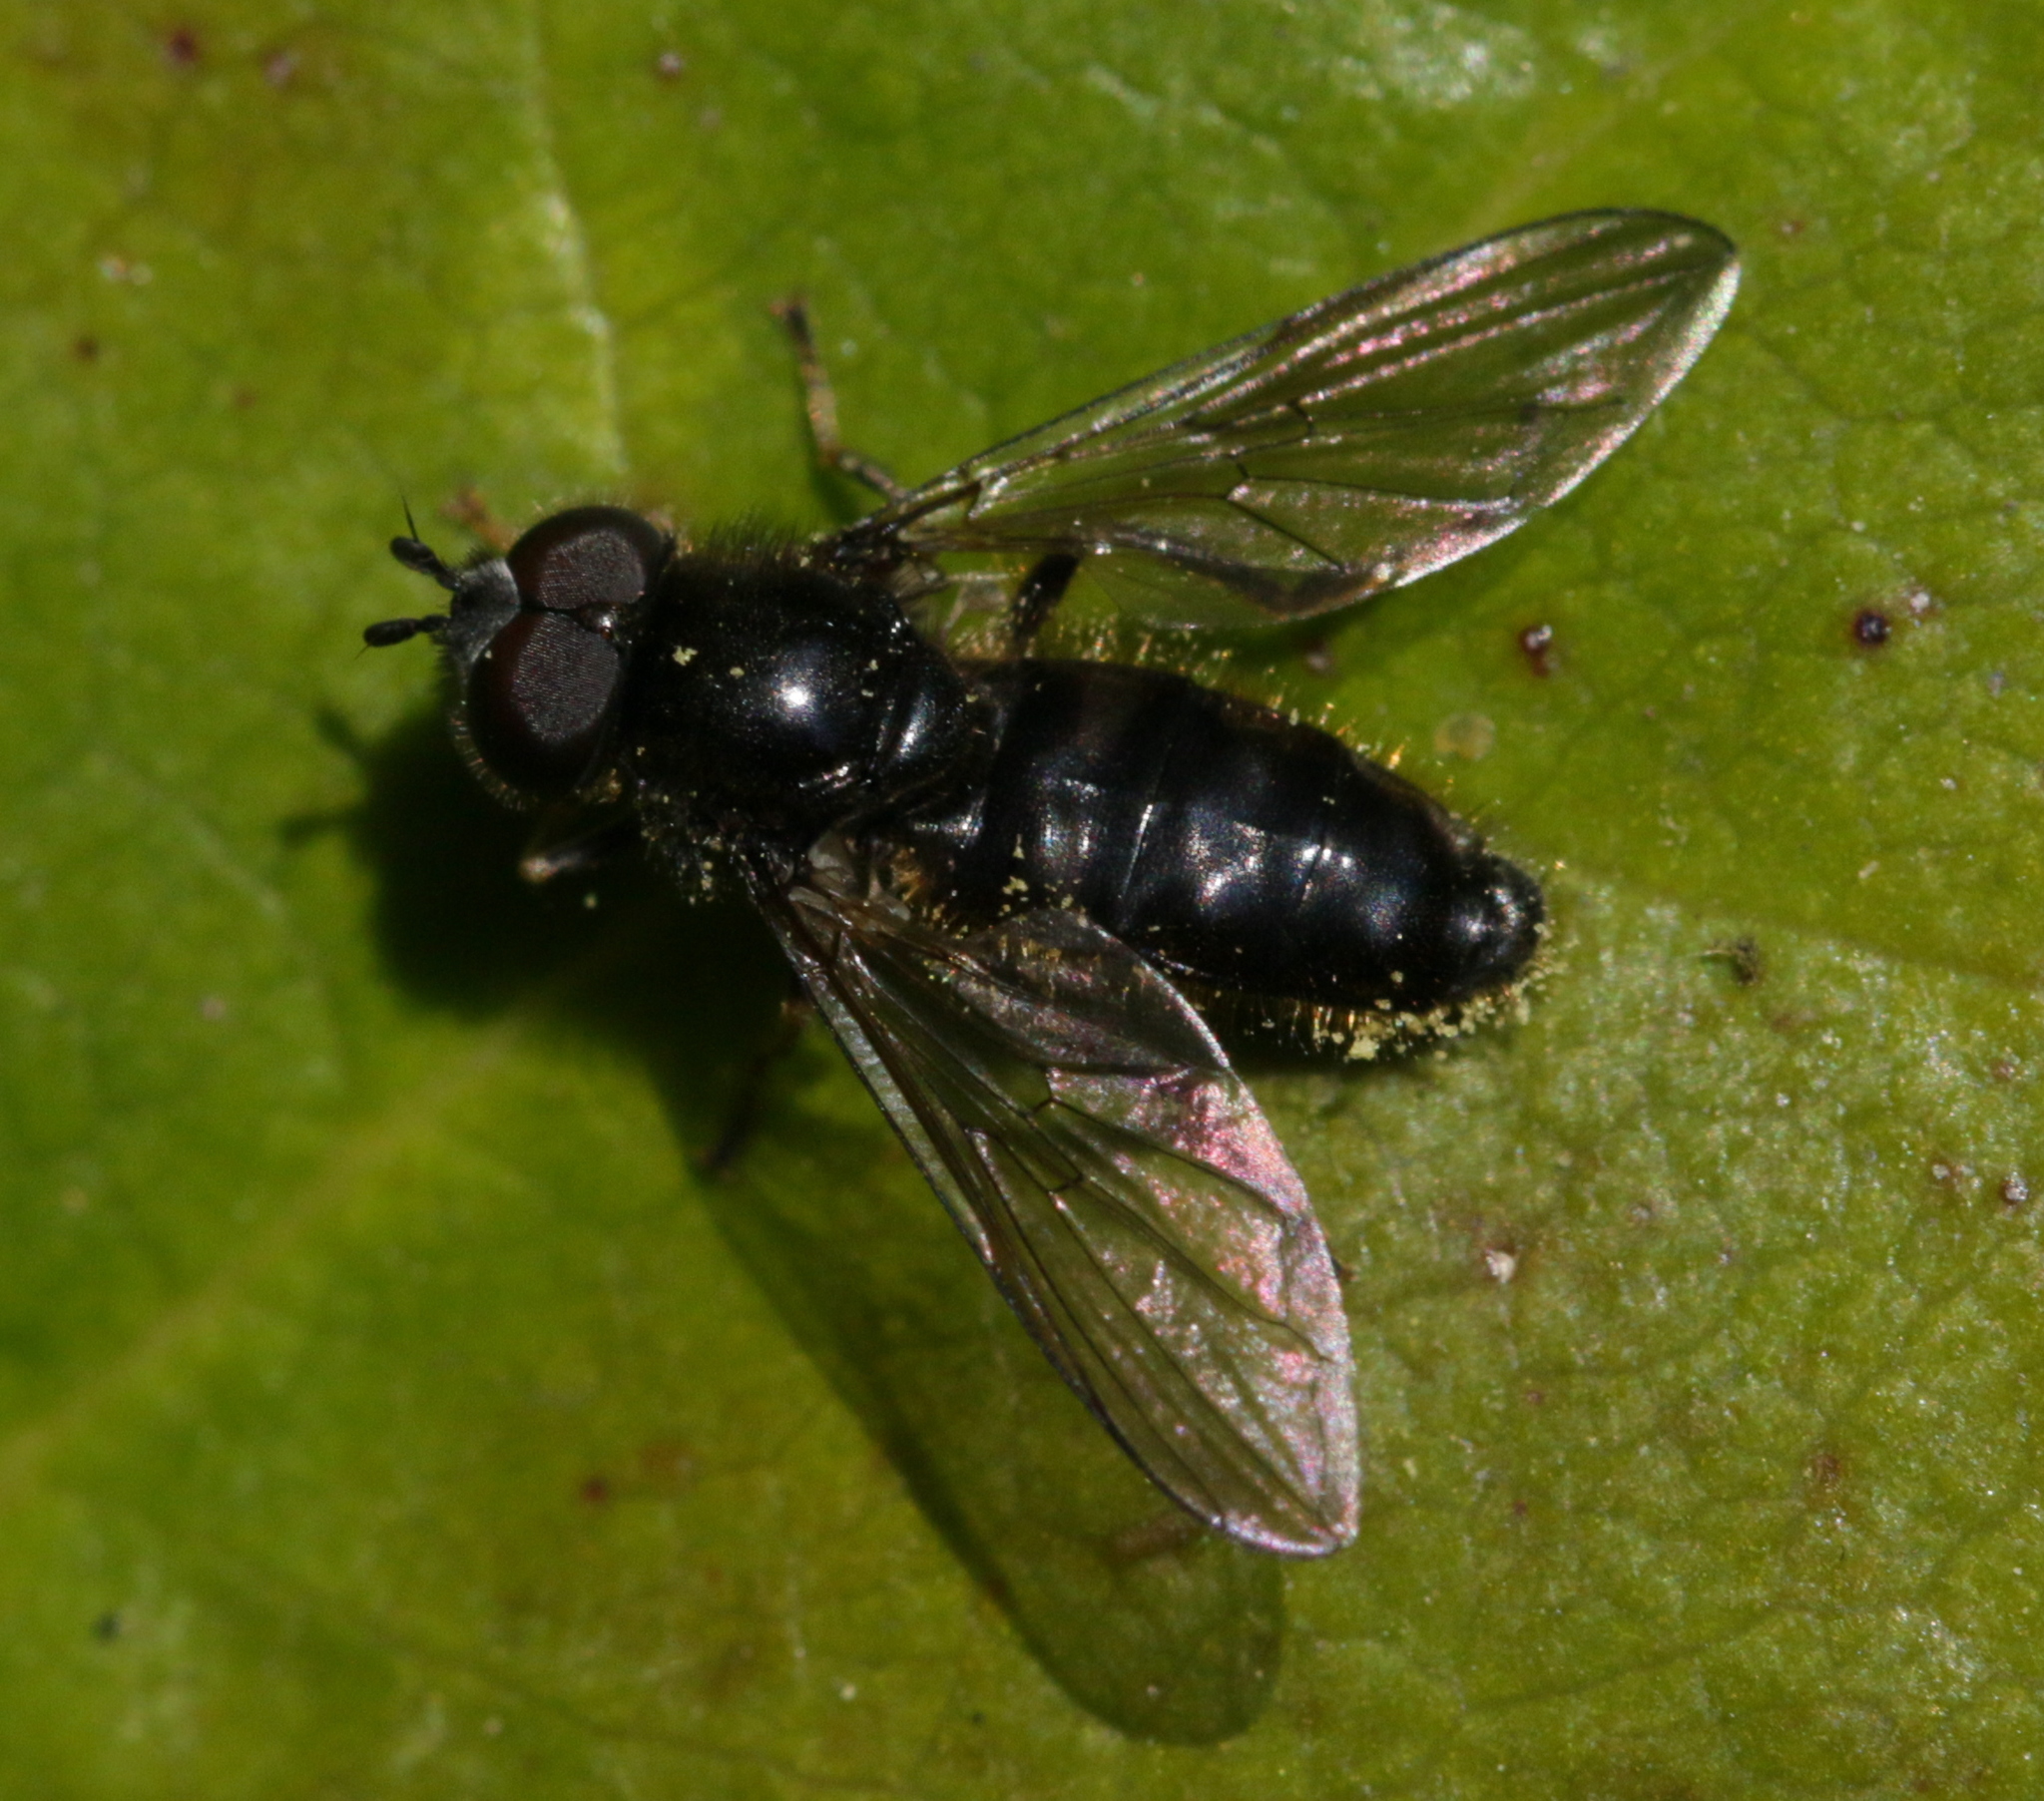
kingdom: Animalia
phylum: Arthropoda
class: Insecta
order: Diptera
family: Syrphidae
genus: Pipiza
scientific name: Pipiza
